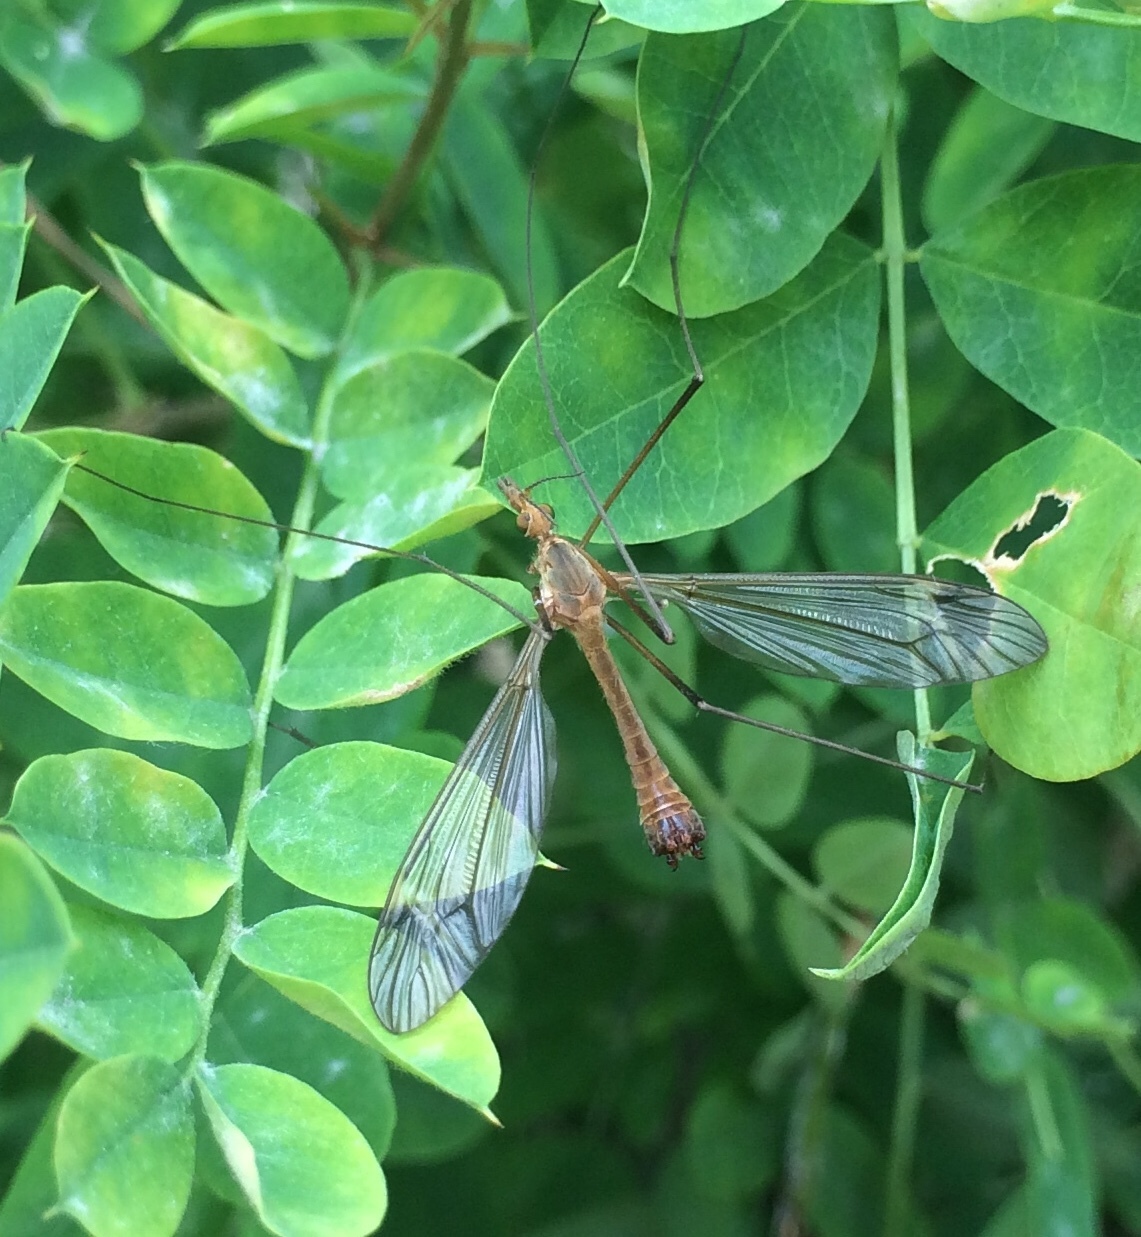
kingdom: Animalia
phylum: Arthropoda
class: Insecta
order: Diptera
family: Tipulidae
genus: Tipula
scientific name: Tipula fascipennis
